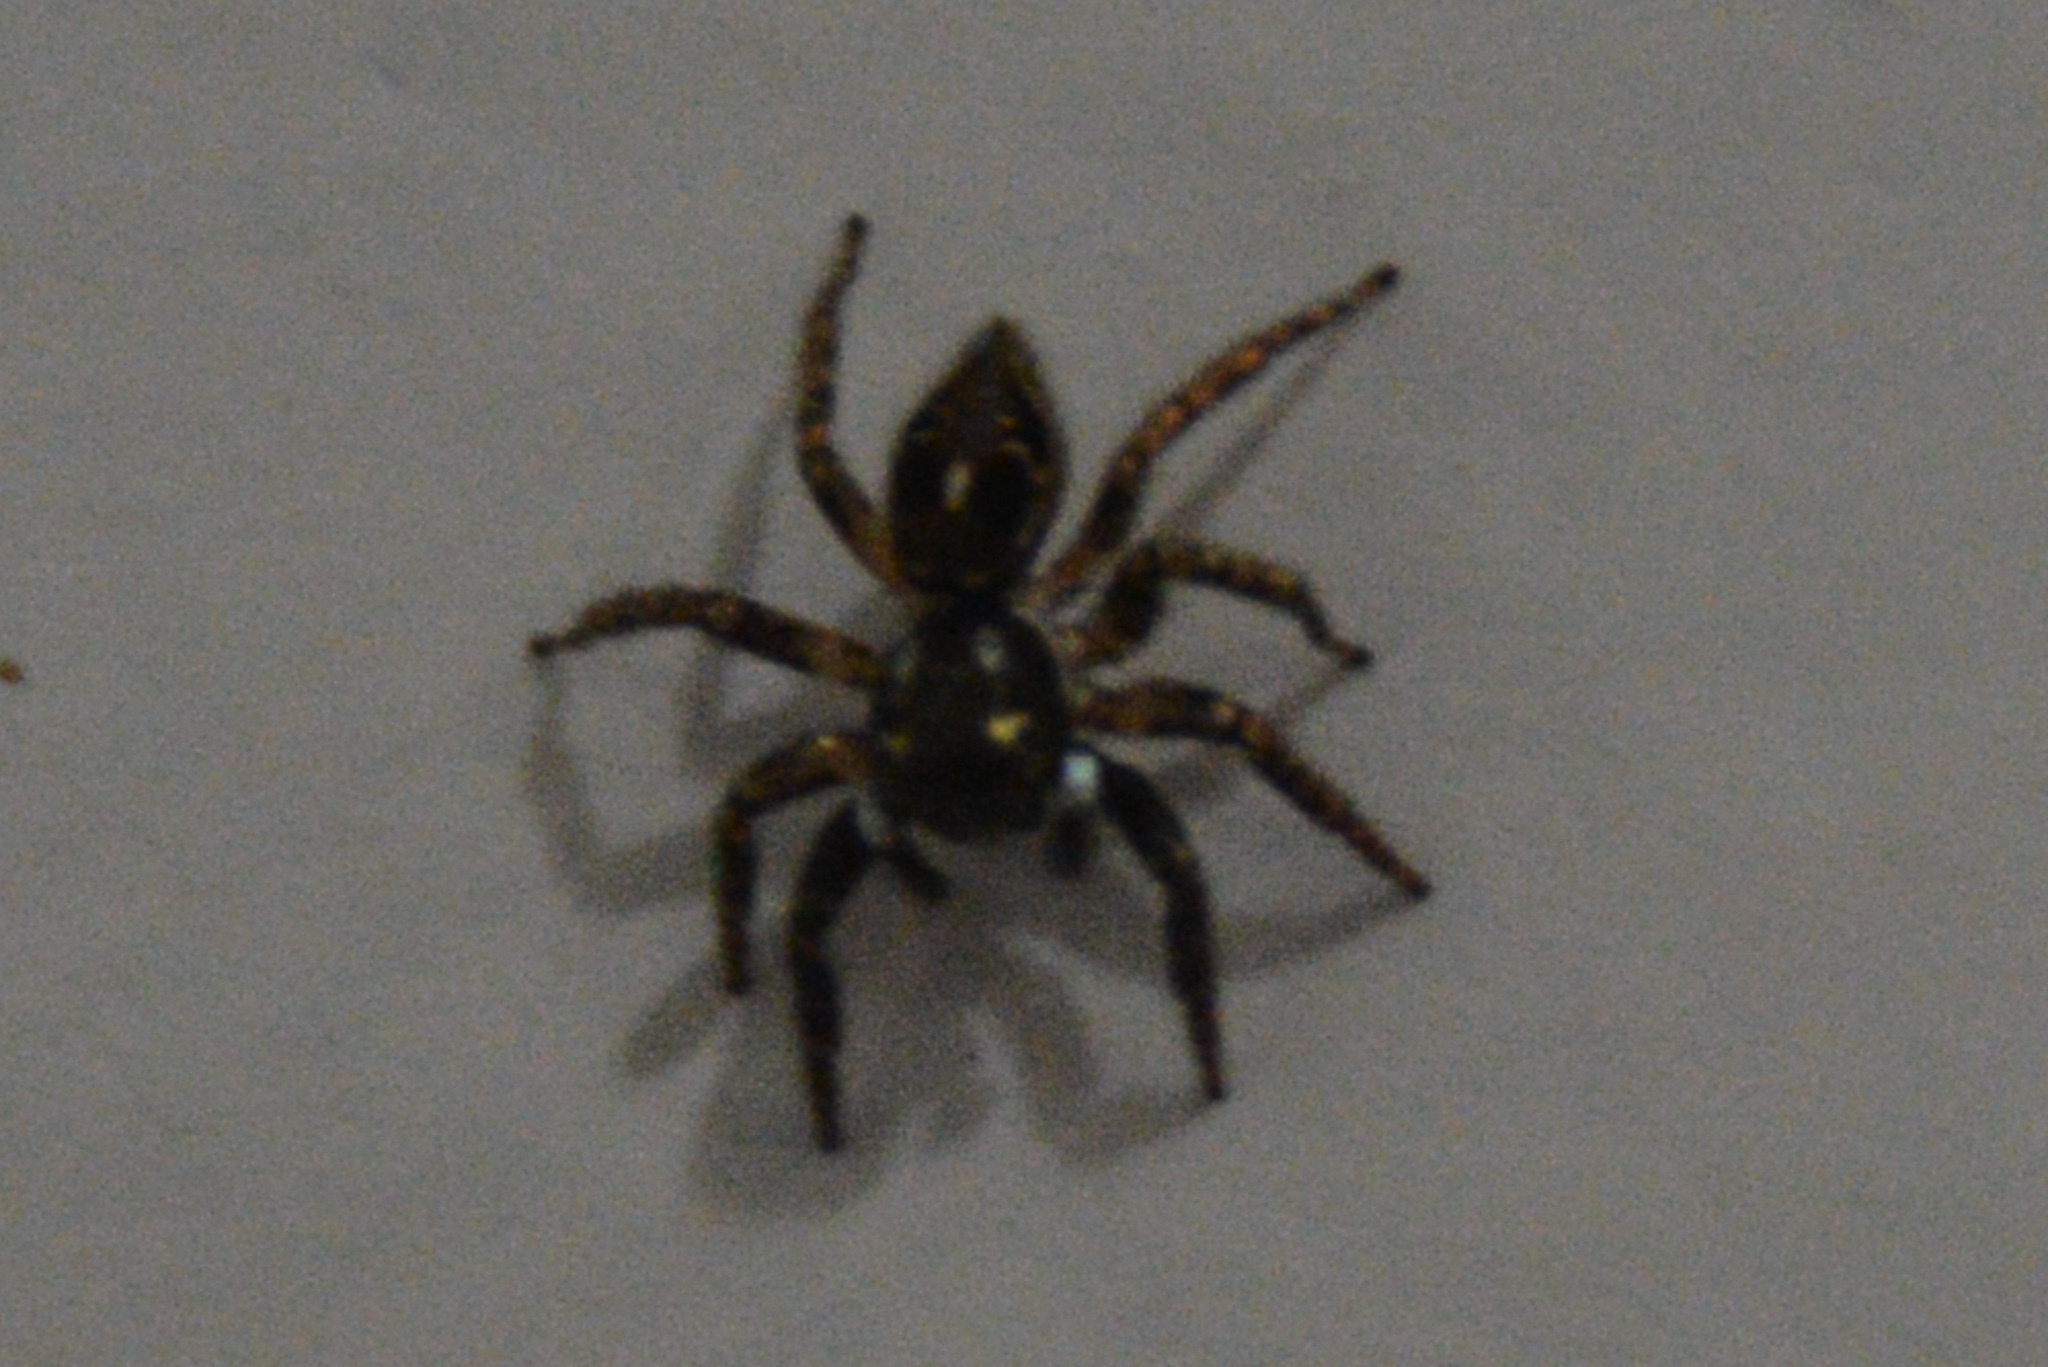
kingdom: Animalia
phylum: Arthropoda
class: Arachnida
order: Araneae
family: Salticidae
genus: Anasaitis
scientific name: Anasaitis canosa
